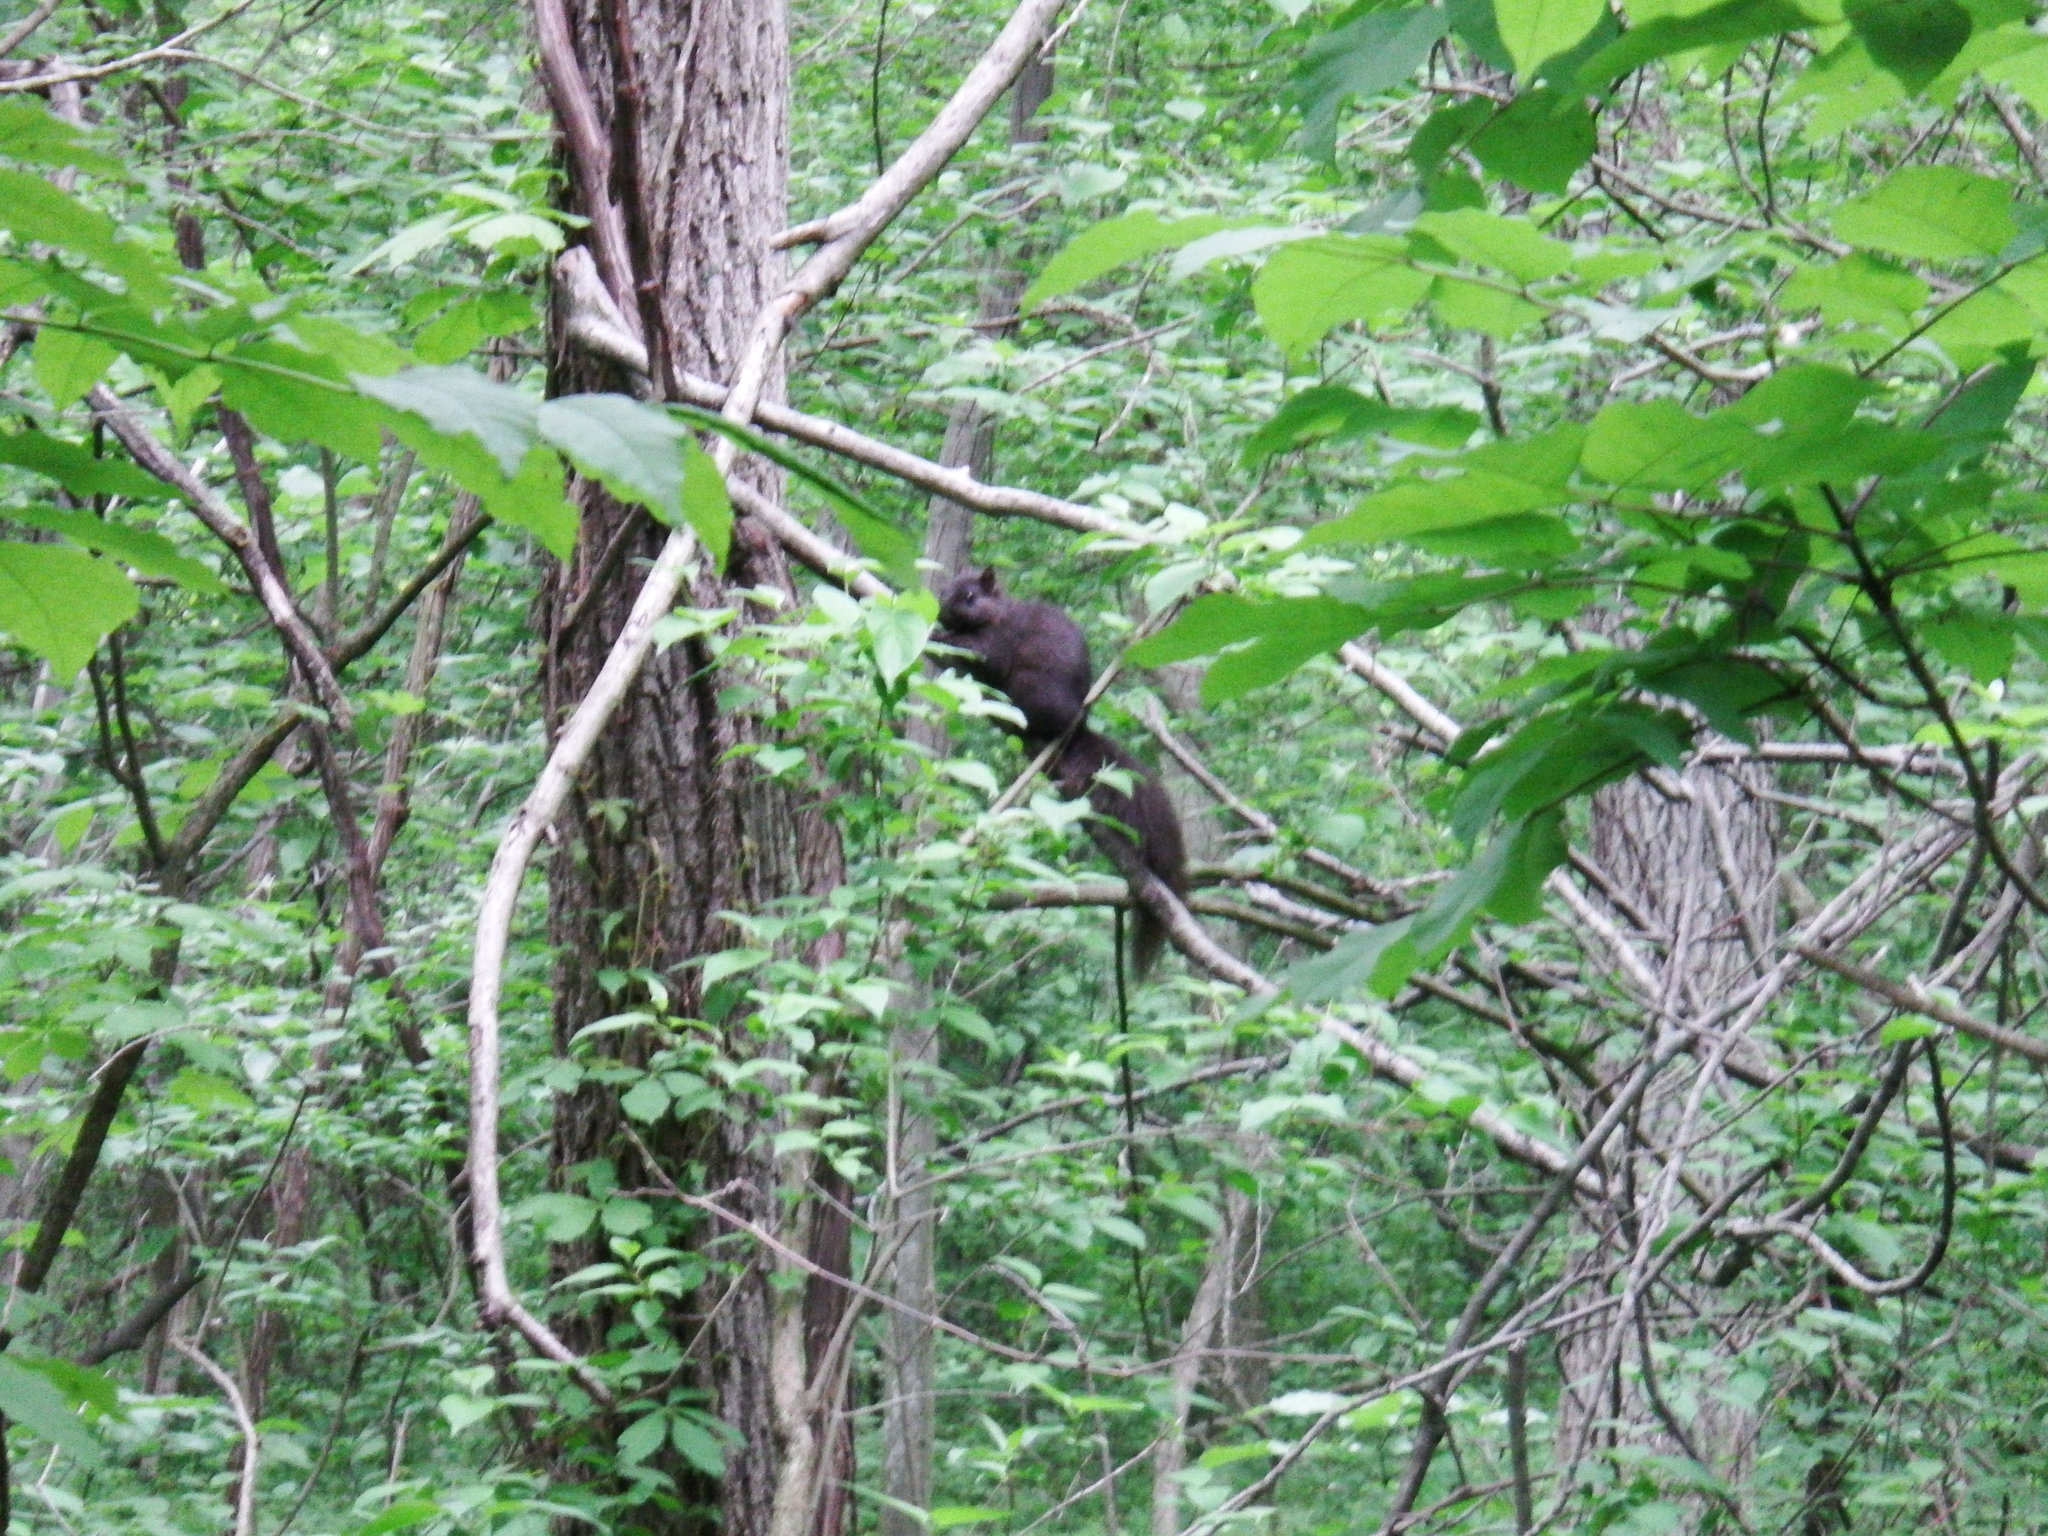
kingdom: Animalia
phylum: Chordata
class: Mammalia
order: Rodentia
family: Sciuridae
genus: Sciurus
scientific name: Sciurus carolinensis
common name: Eastern gray squirrel
